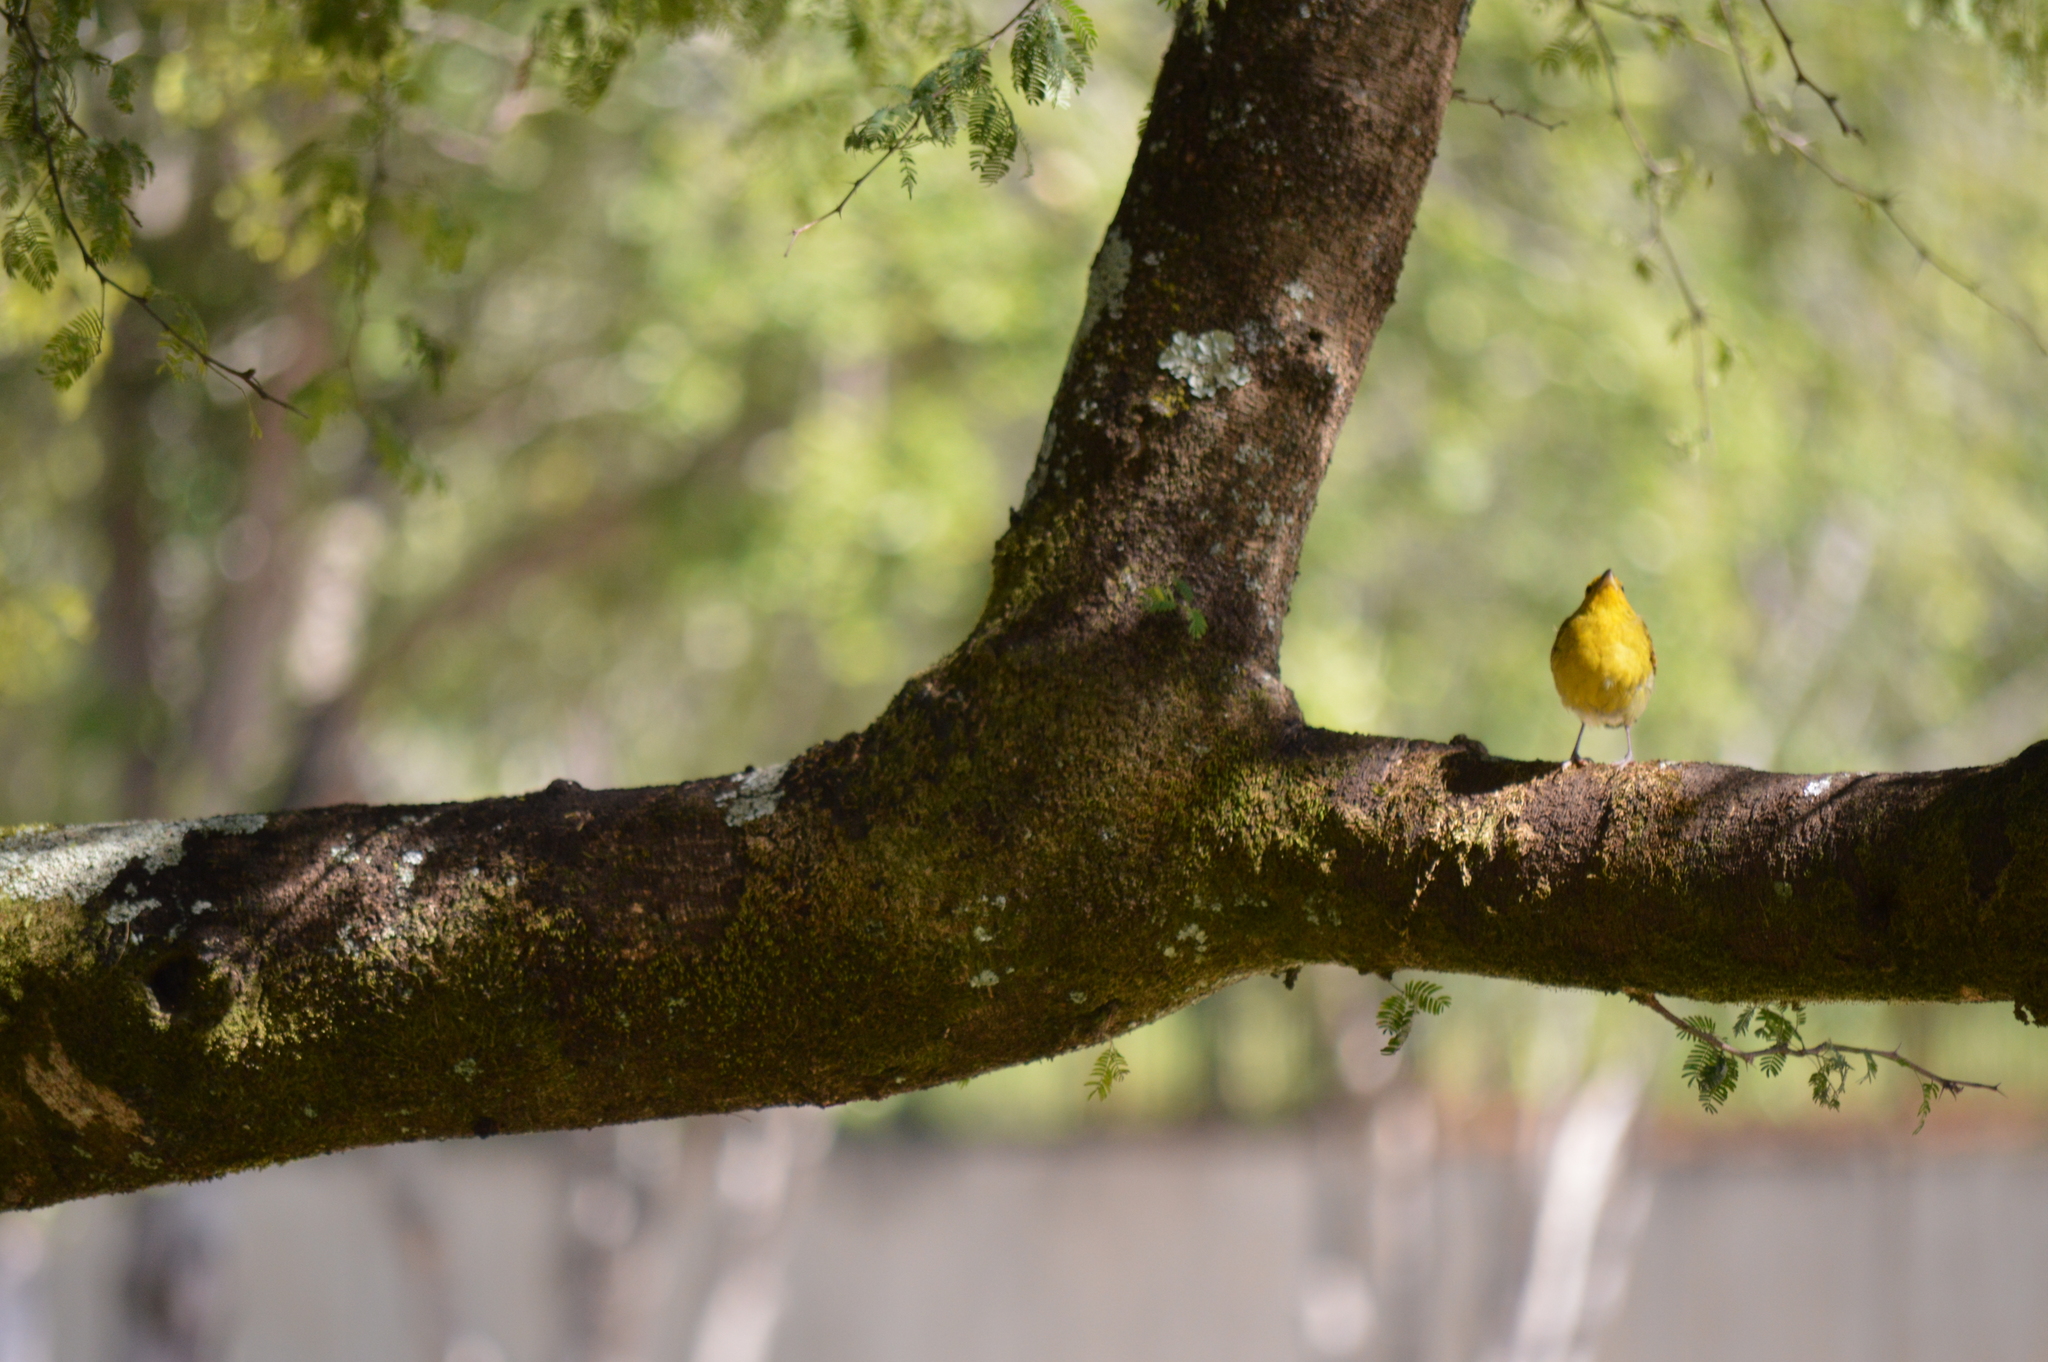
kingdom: Animalia
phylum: Chordata
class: Aves
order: Passeriformes
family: Thraupidae
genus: Sicalis
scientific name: Sicalis flaveola
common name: Saffron finch
